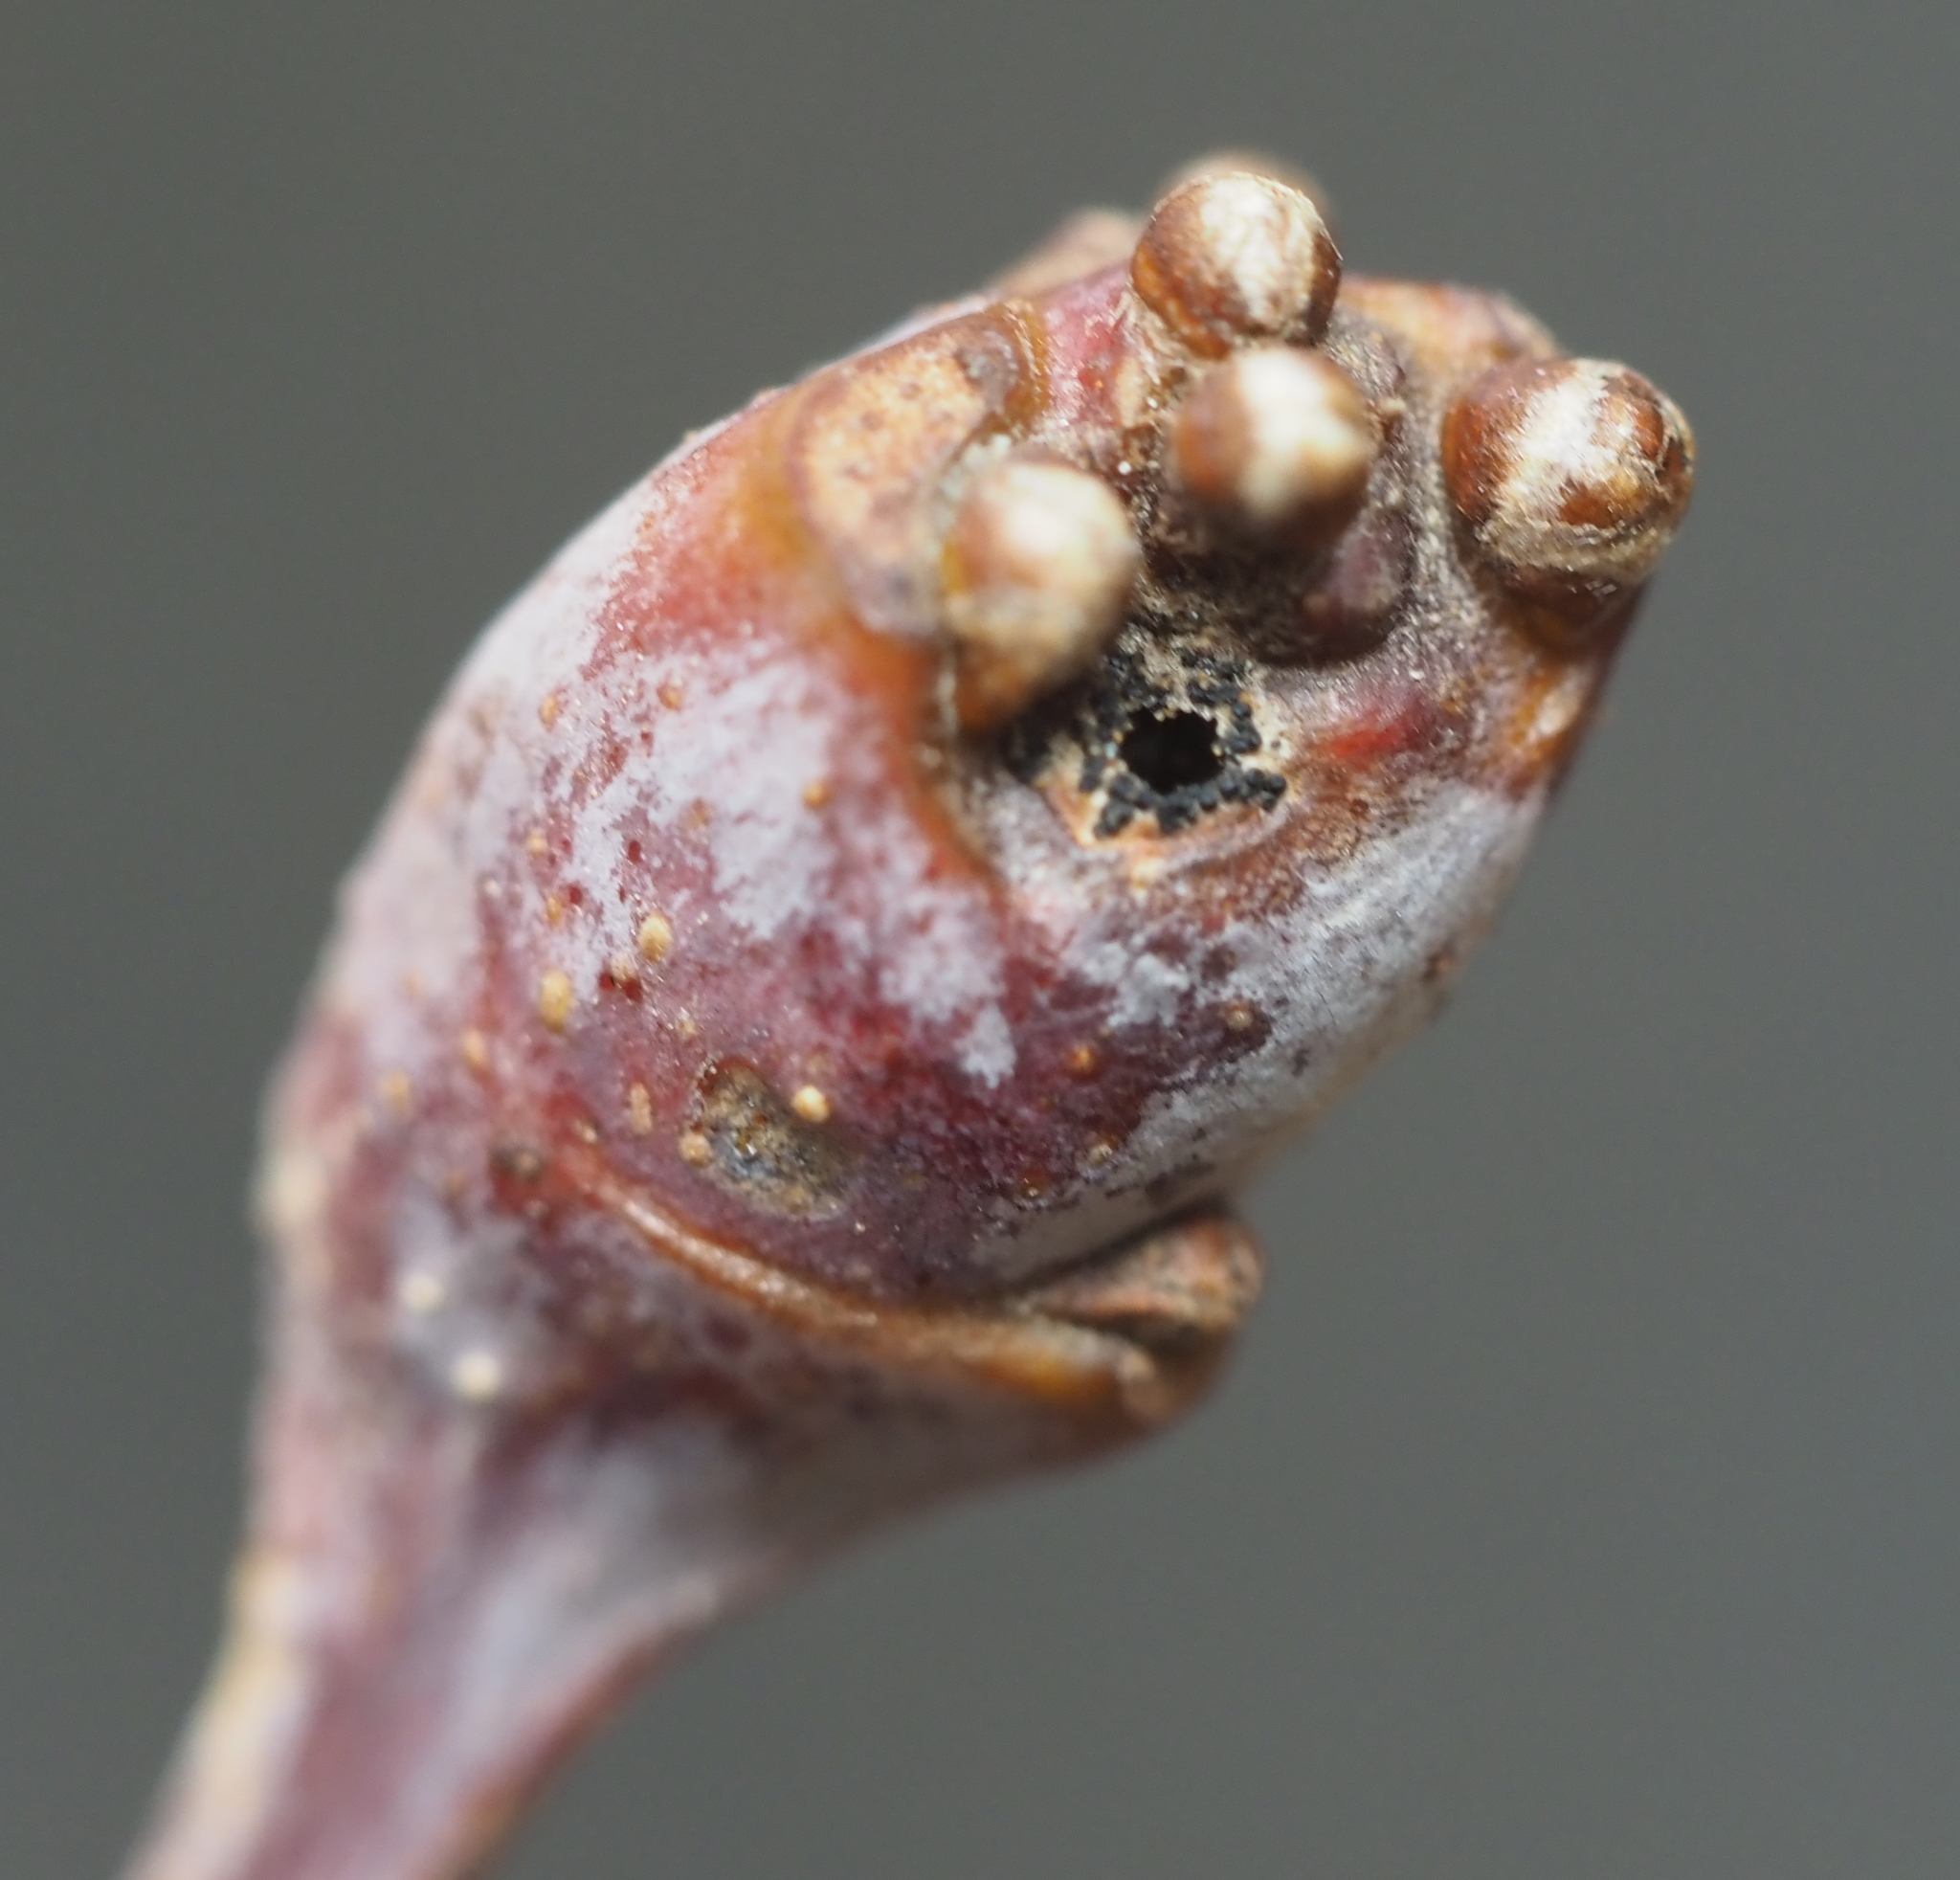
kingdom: Animalia
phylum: Arthropoda
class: Insecta
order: Hymenoptera
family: Cynipidae
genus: Callirhytis
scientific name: Callirhytis clavula
